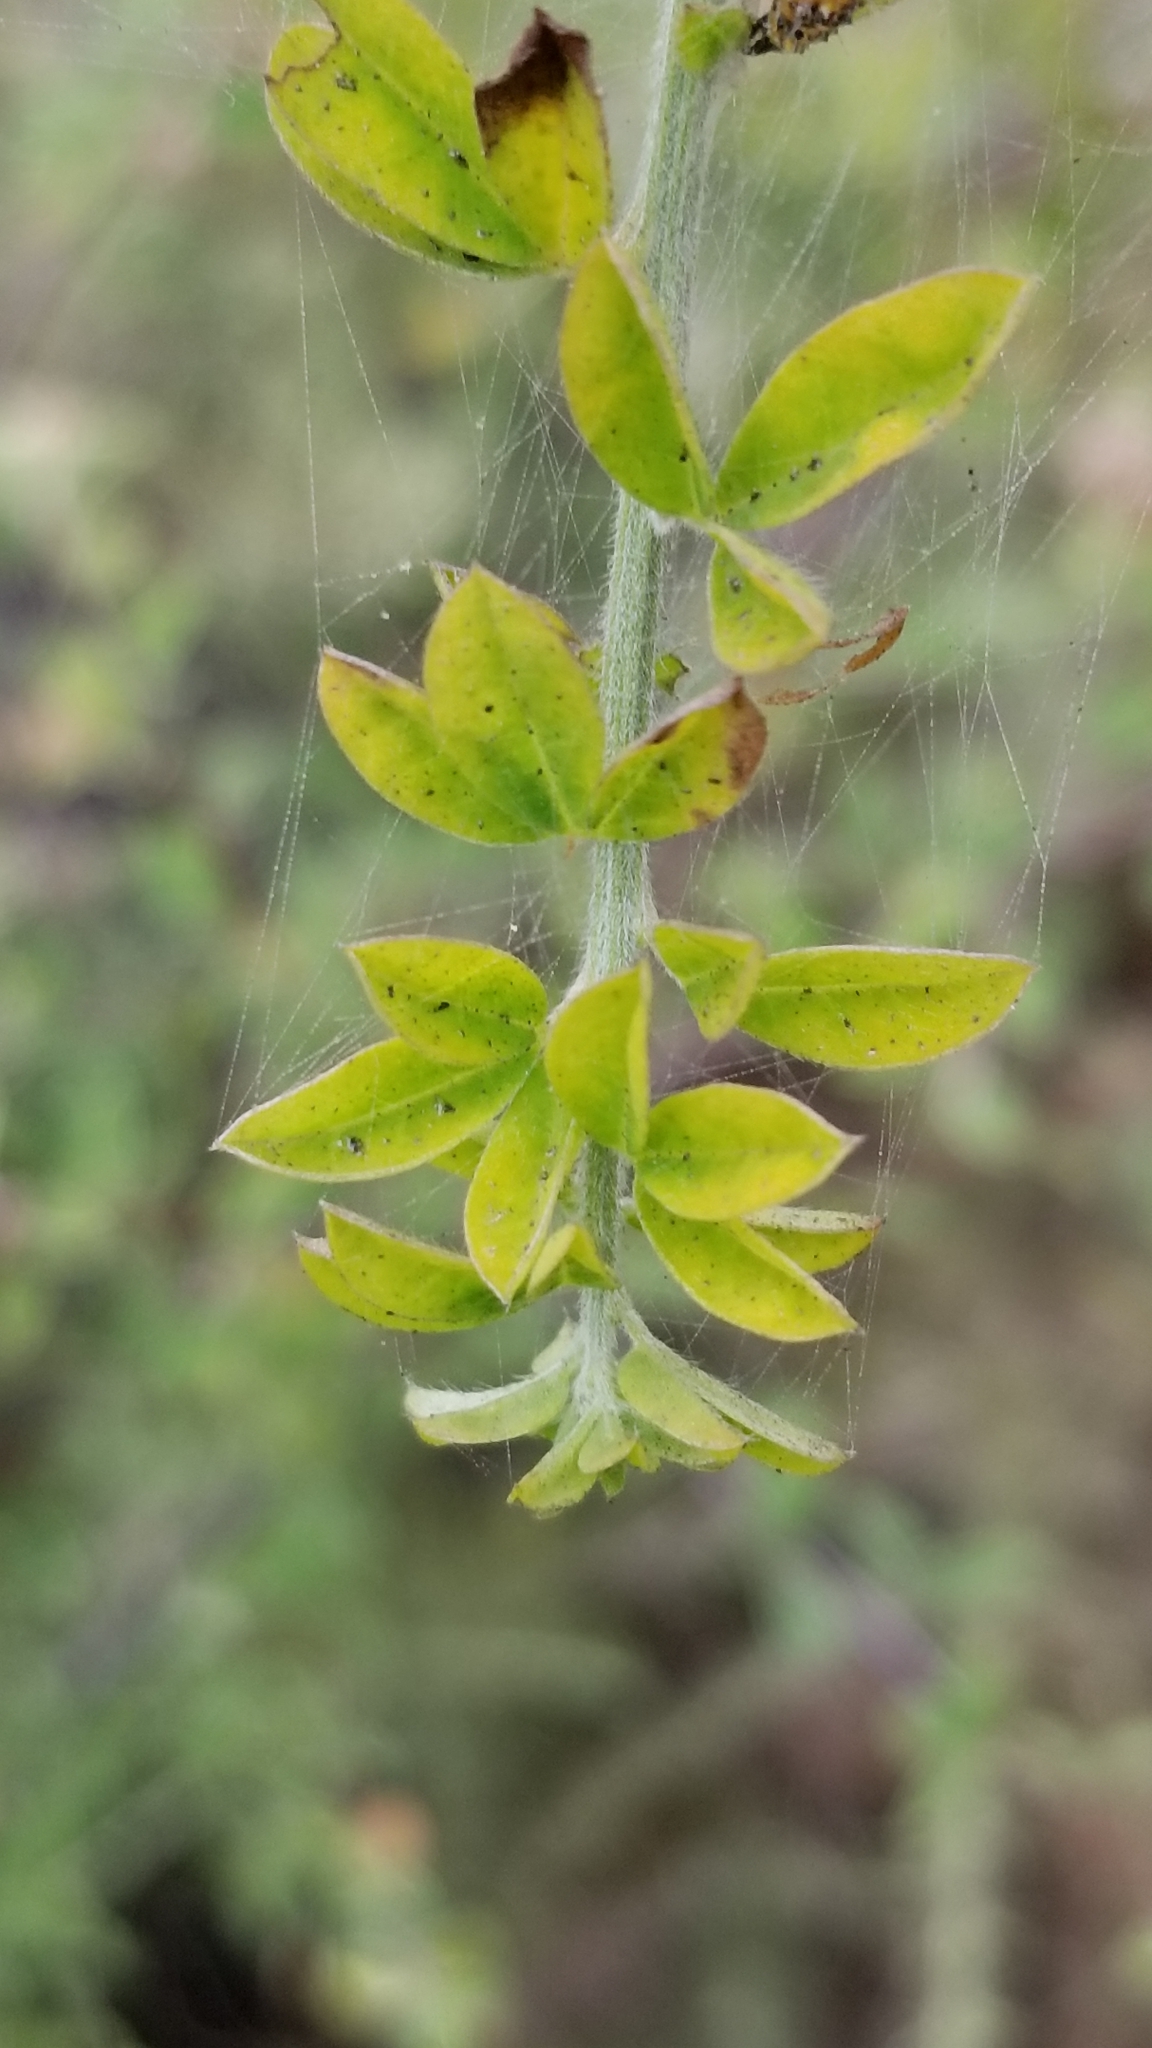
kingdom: Plantae
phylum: Tracheophyta
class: Magnoliopsida
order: Fabales
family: Fabaceae
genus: Genista
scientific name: Genista monspessulana
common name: Montpellier broom
